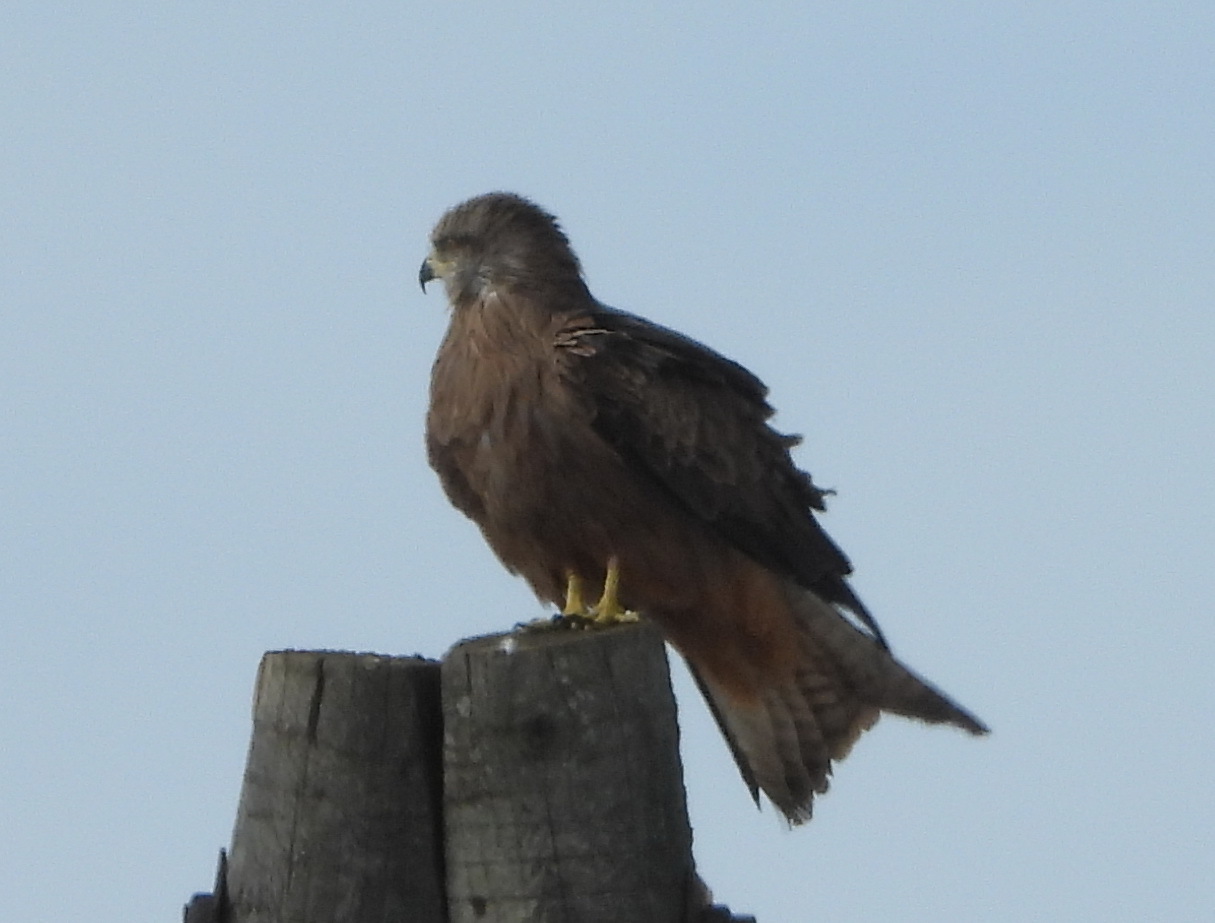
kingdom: Animalia
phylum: Chordata
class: Aves
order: Accipitriformes
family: Accipitridae
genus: Milvus
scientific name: Milvus migrans
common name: Black kite
